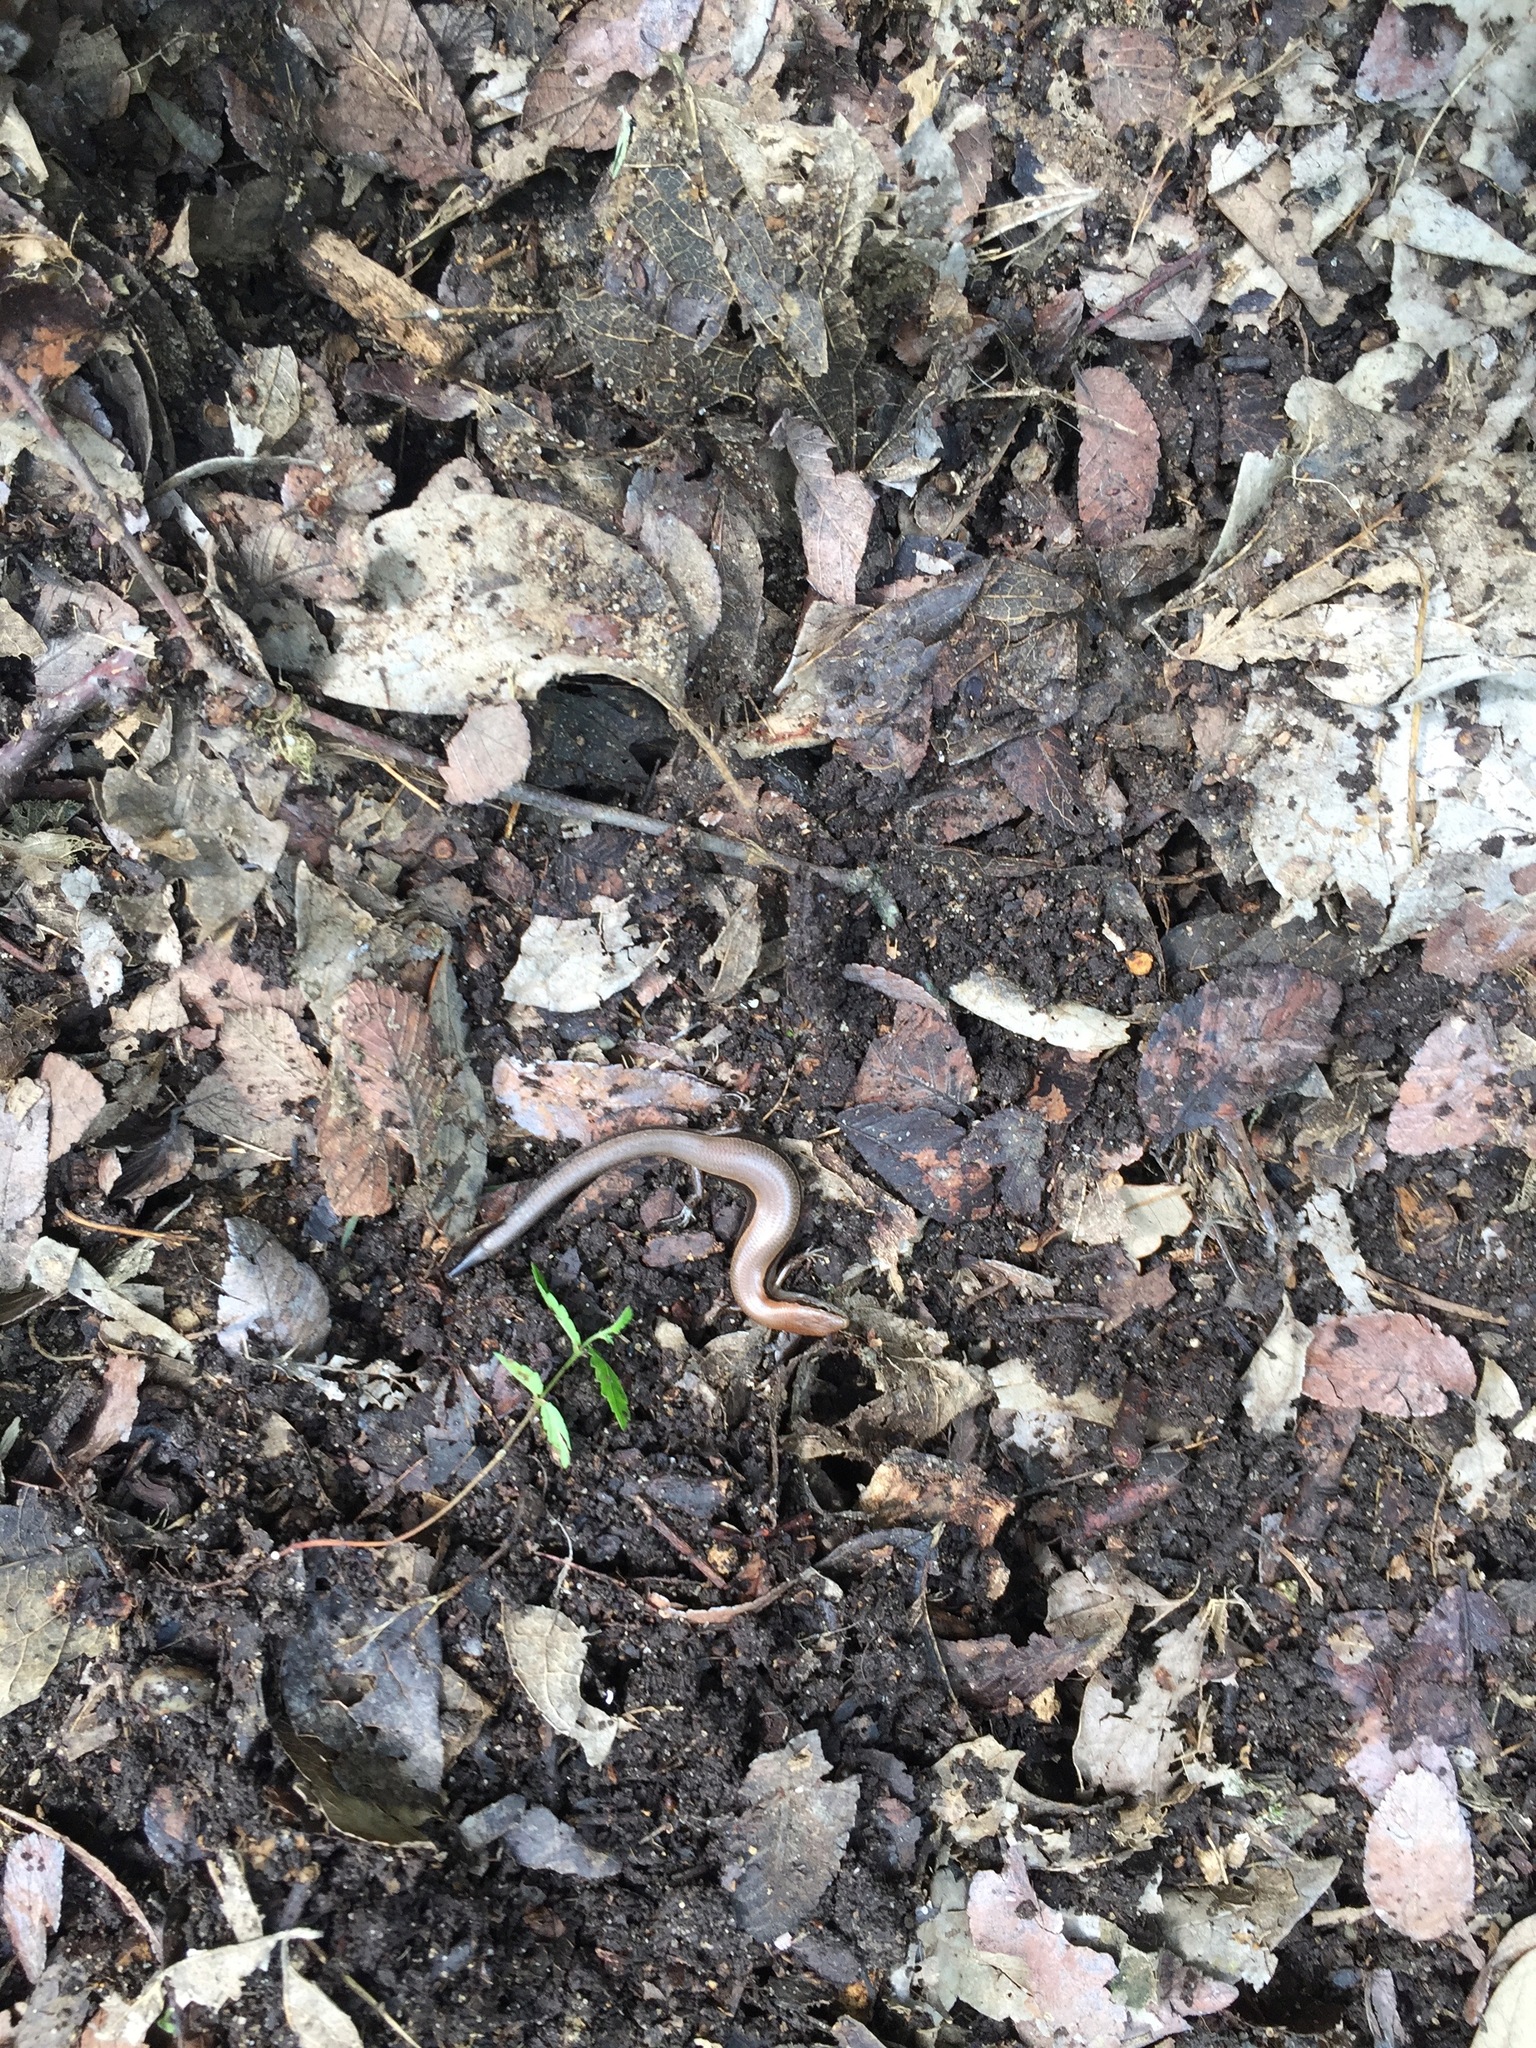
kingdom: Animalia
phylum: Chordata
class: Squamata
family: Scincidae
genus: Scincella
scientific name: Scincella lateralis
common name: Ground skink
